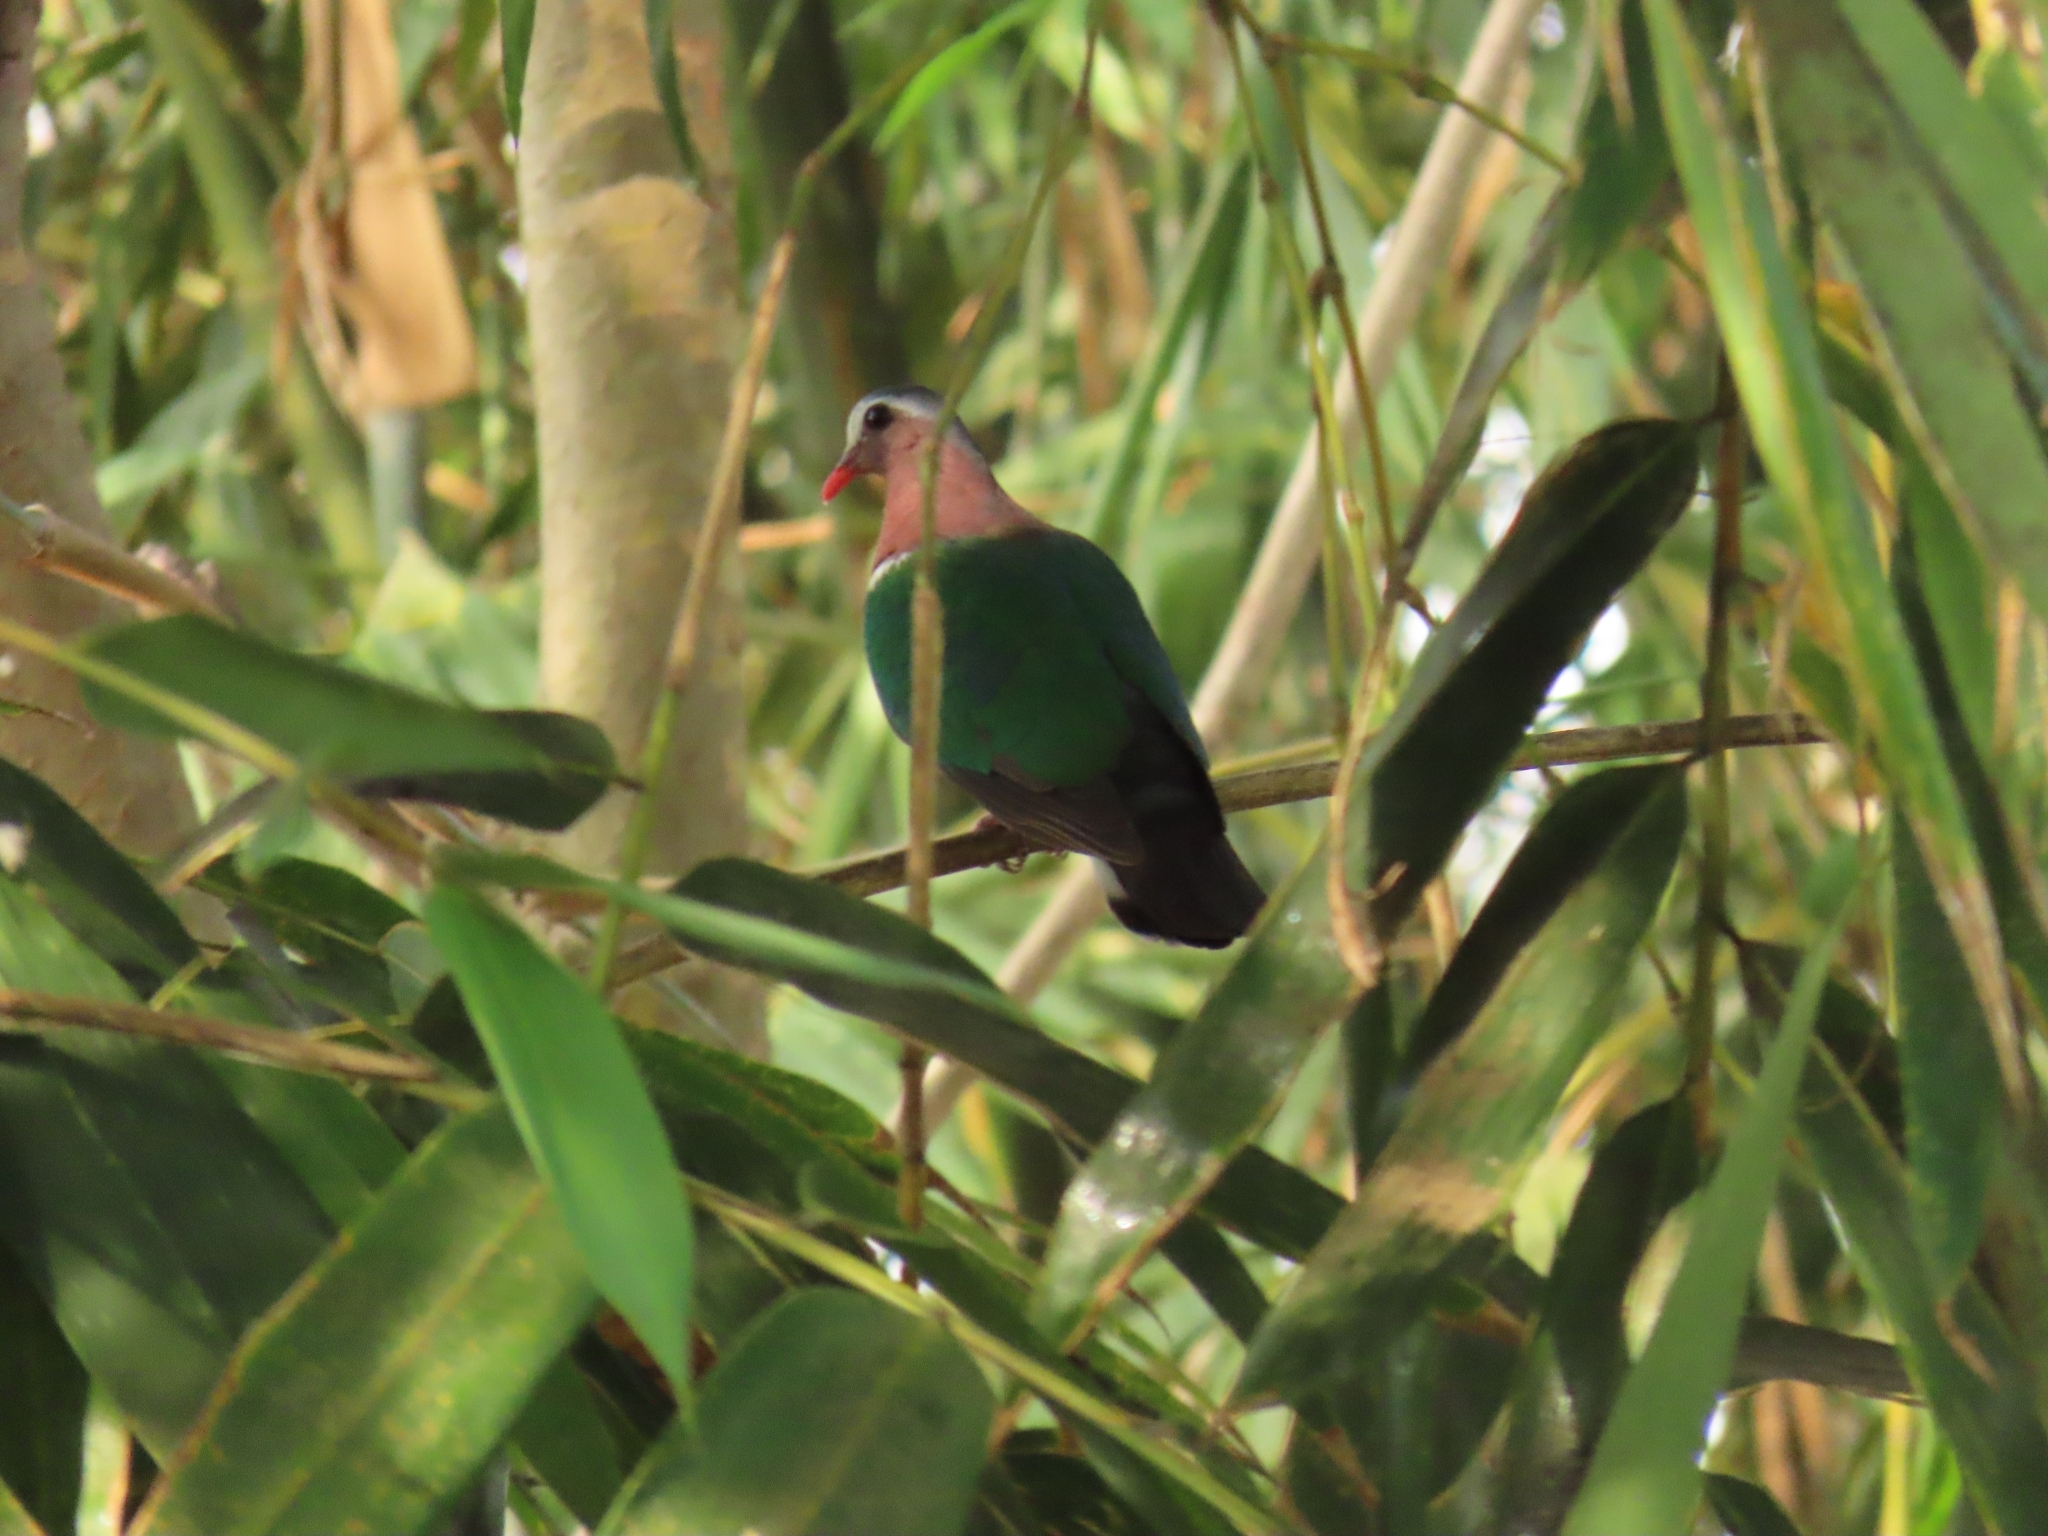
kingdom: Animalia
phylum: Chordata
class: Aves
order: Columbiformes
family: Columbidae
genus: Chalcophaps
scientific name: Chalcophaps indica
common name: Common emerald dove
